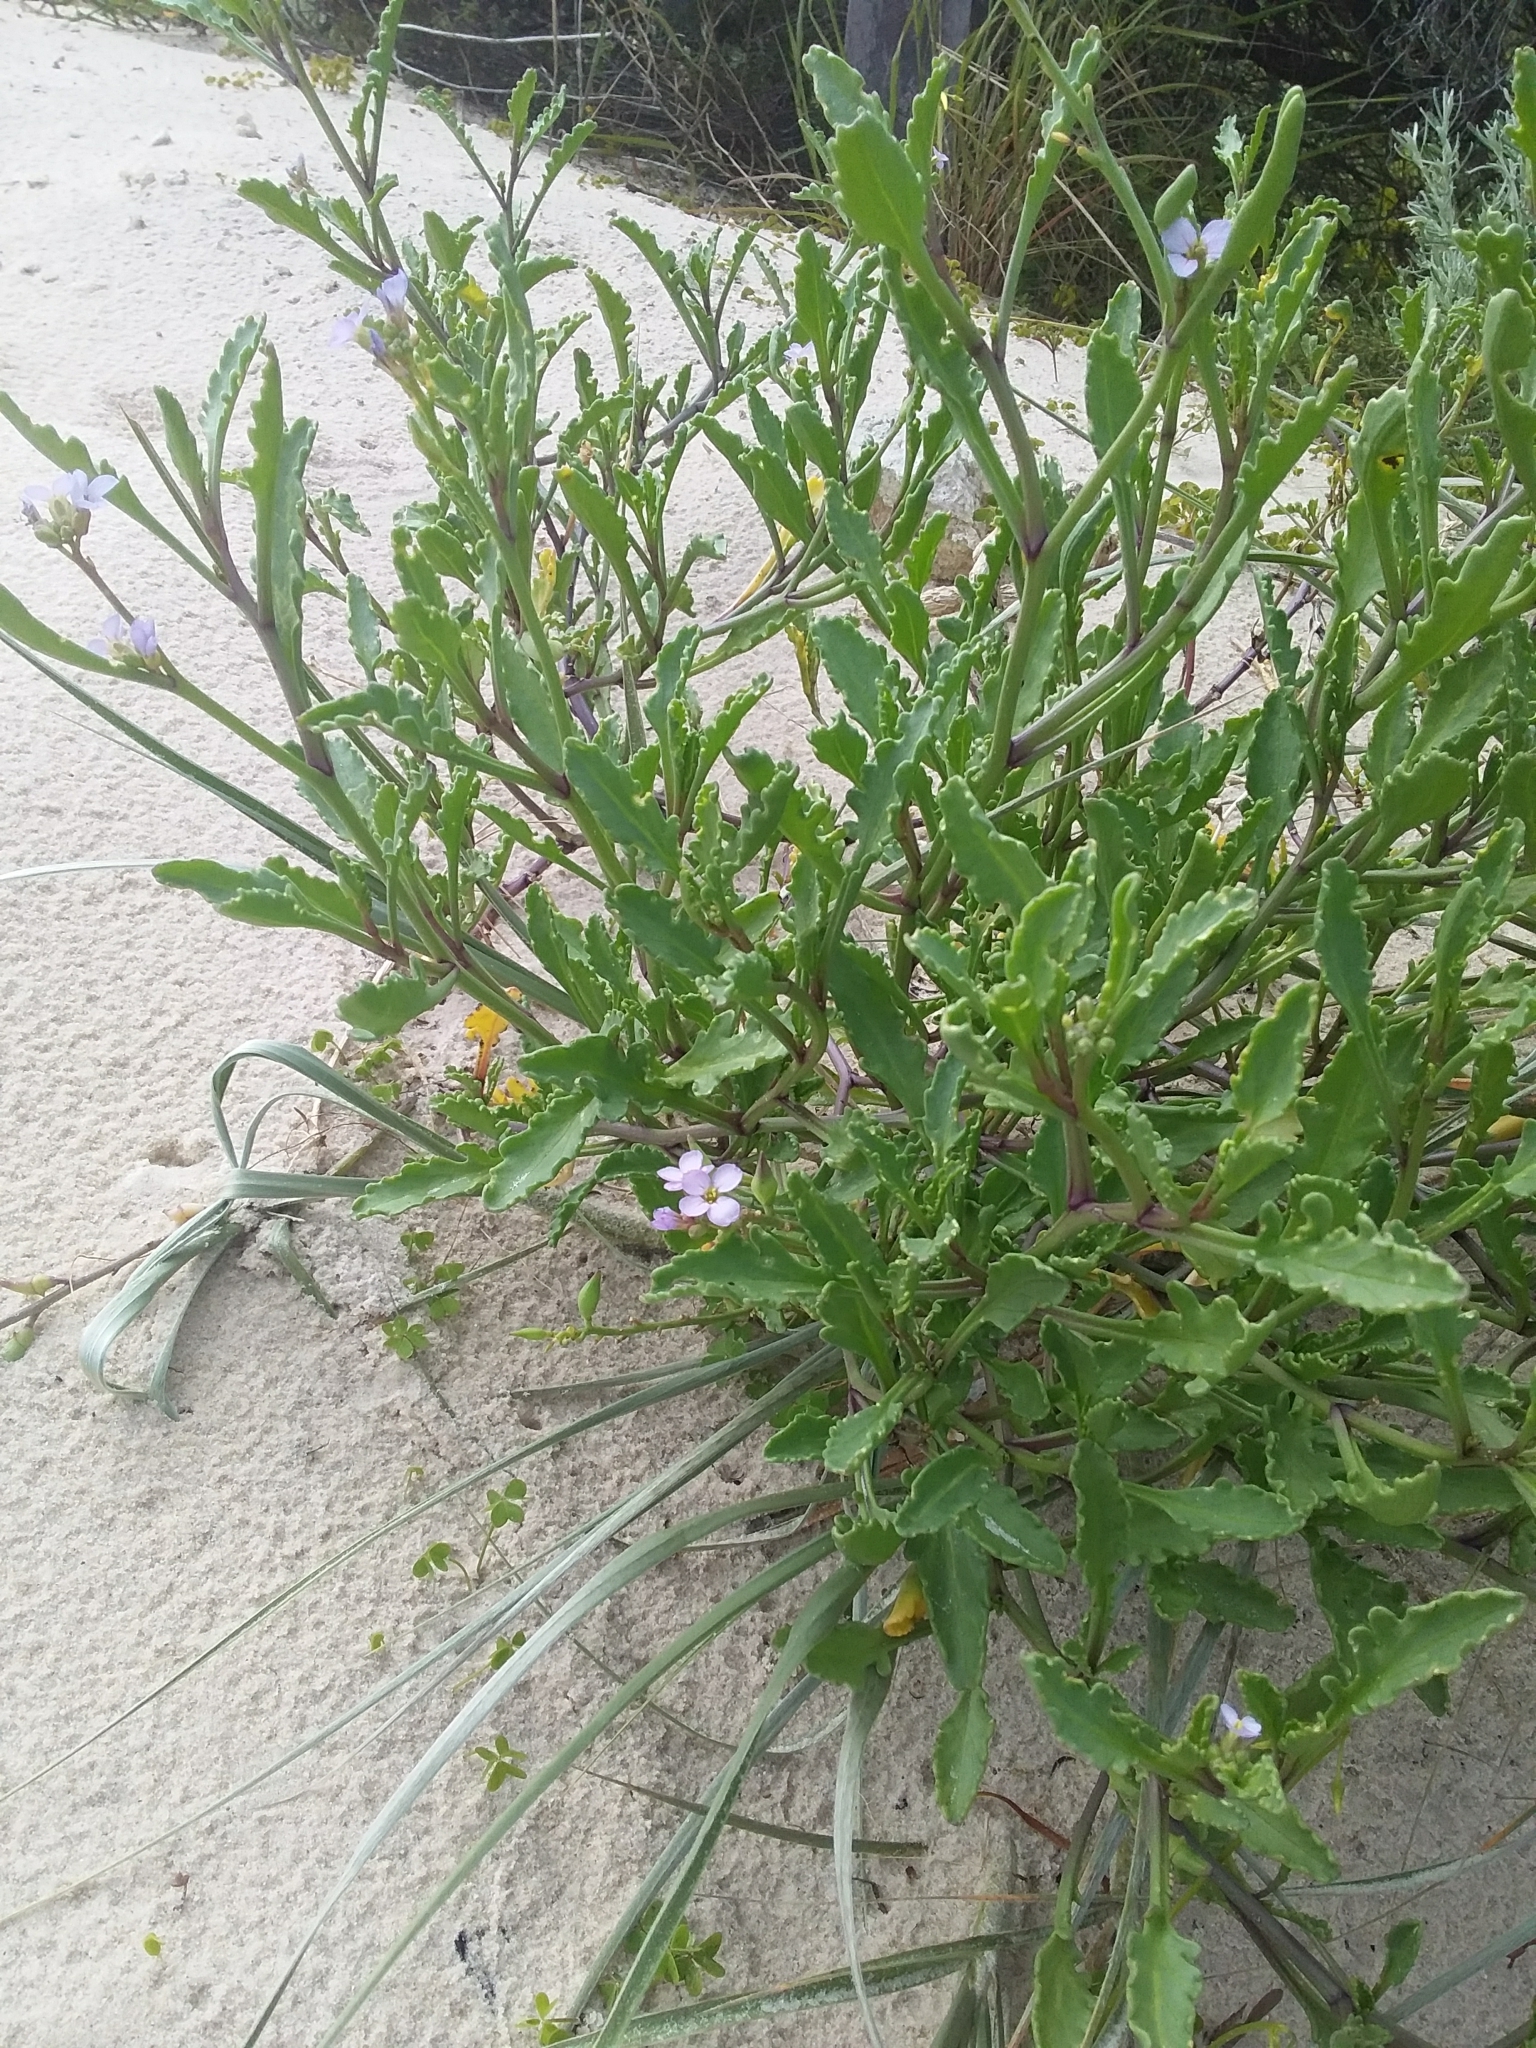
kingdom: Plantae
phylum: Tracheophyta
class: Magnoliopsida
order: Brassicales
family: Brassicaceae
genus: Cakile
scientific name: Cakile maritima
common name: Sea rocket
